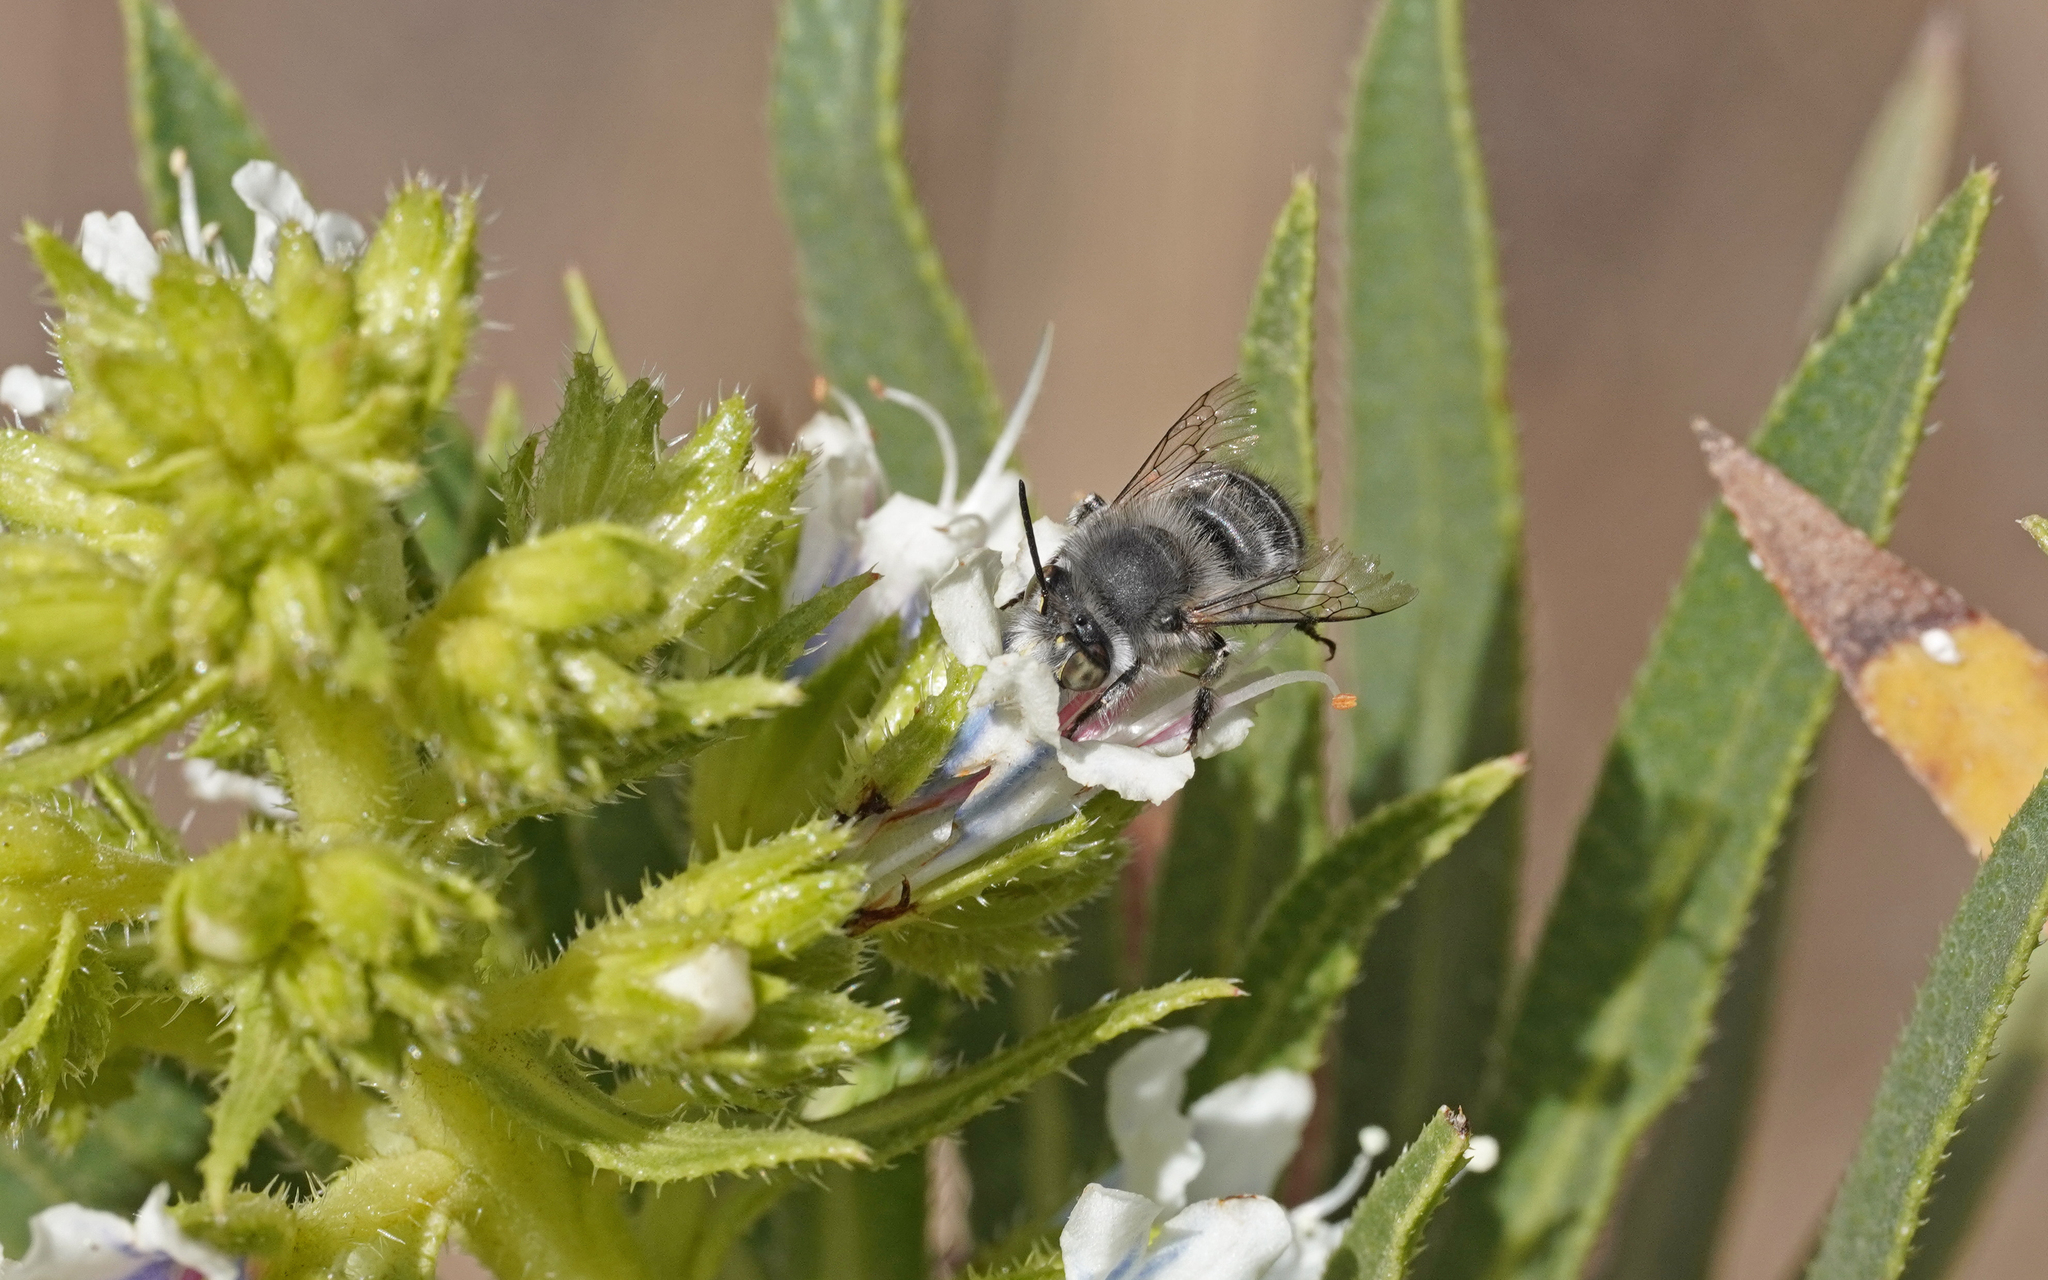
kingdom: Animalia
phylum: Arthropoda
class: Insecta
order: Hymenoptera
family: Apidae
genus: Anthophora
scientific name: Anthophora orotavae
